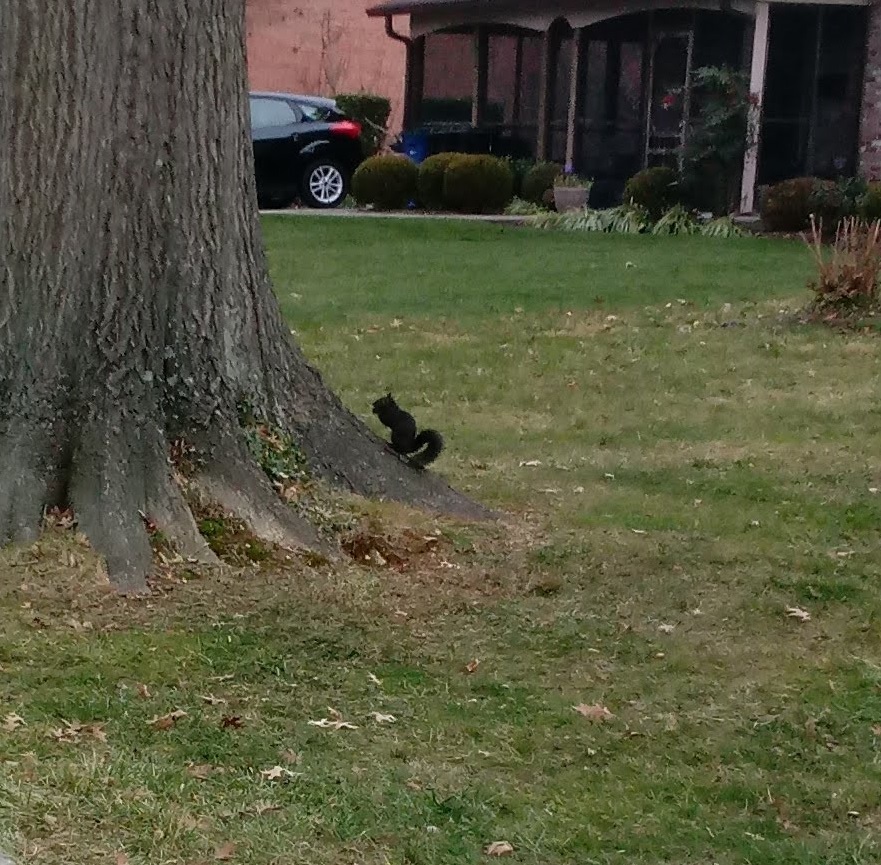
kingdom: Animalia
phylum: Chordata
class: Mammalia
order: Rodentia
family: Sciuridae
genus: Sciurus
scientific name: Sciurus carolinensis
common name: Eastern gray squirrel
